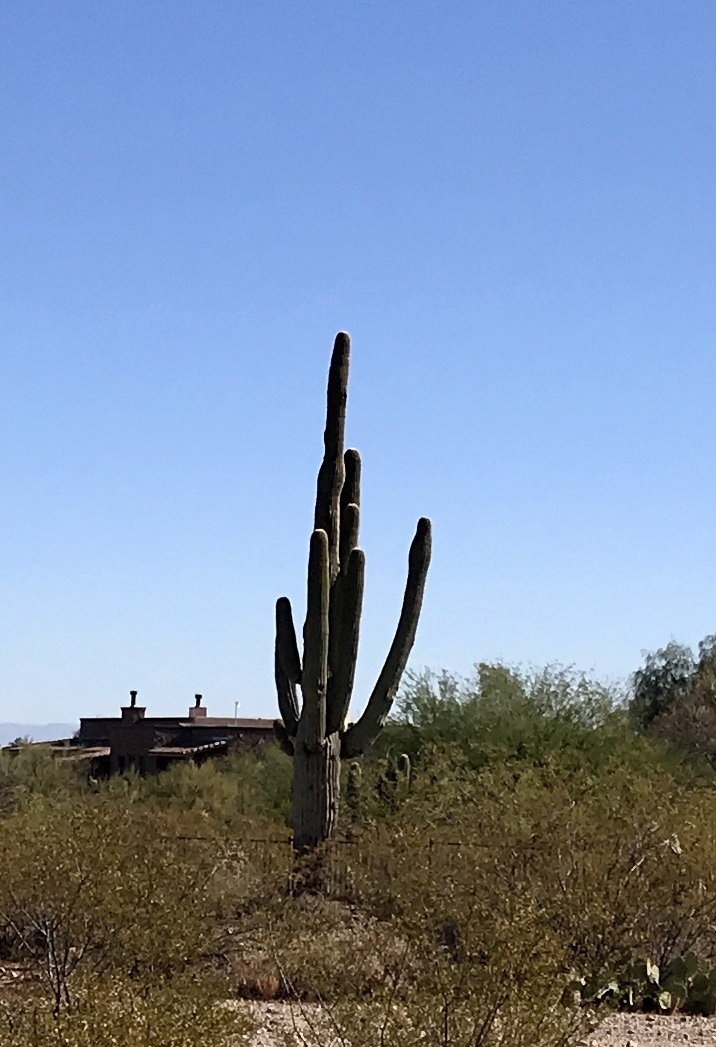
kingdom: Plantae
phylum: Tracheophyta
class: Magnoliopsida
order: Caryophyllales
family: Cactaceae
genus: Carnegiea
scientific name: Carnegiea gigantea
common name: Saguaro
